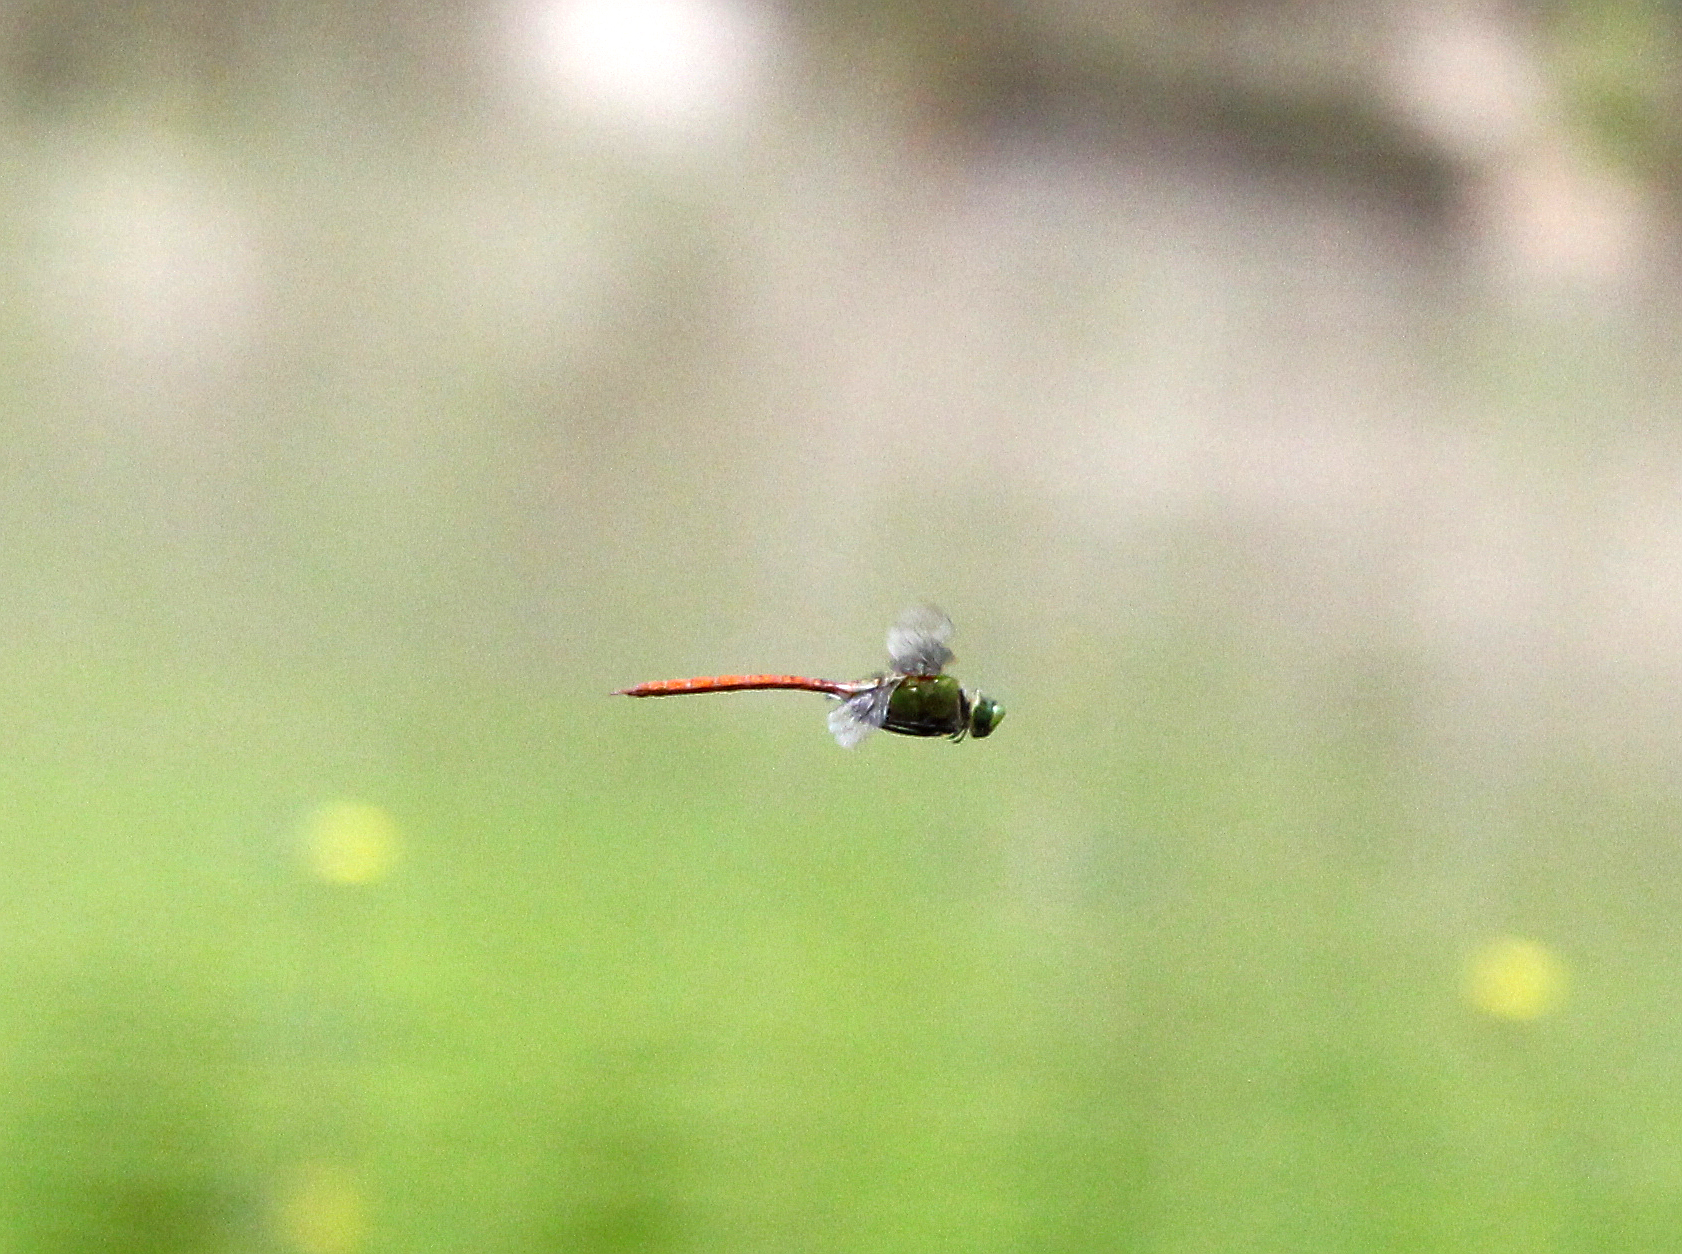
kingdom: Animalia
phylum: Arthropoda
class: Insecta
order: Odonata
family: Aeshnidae
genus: Anax
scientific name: Anax longipes
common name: Comet darner
